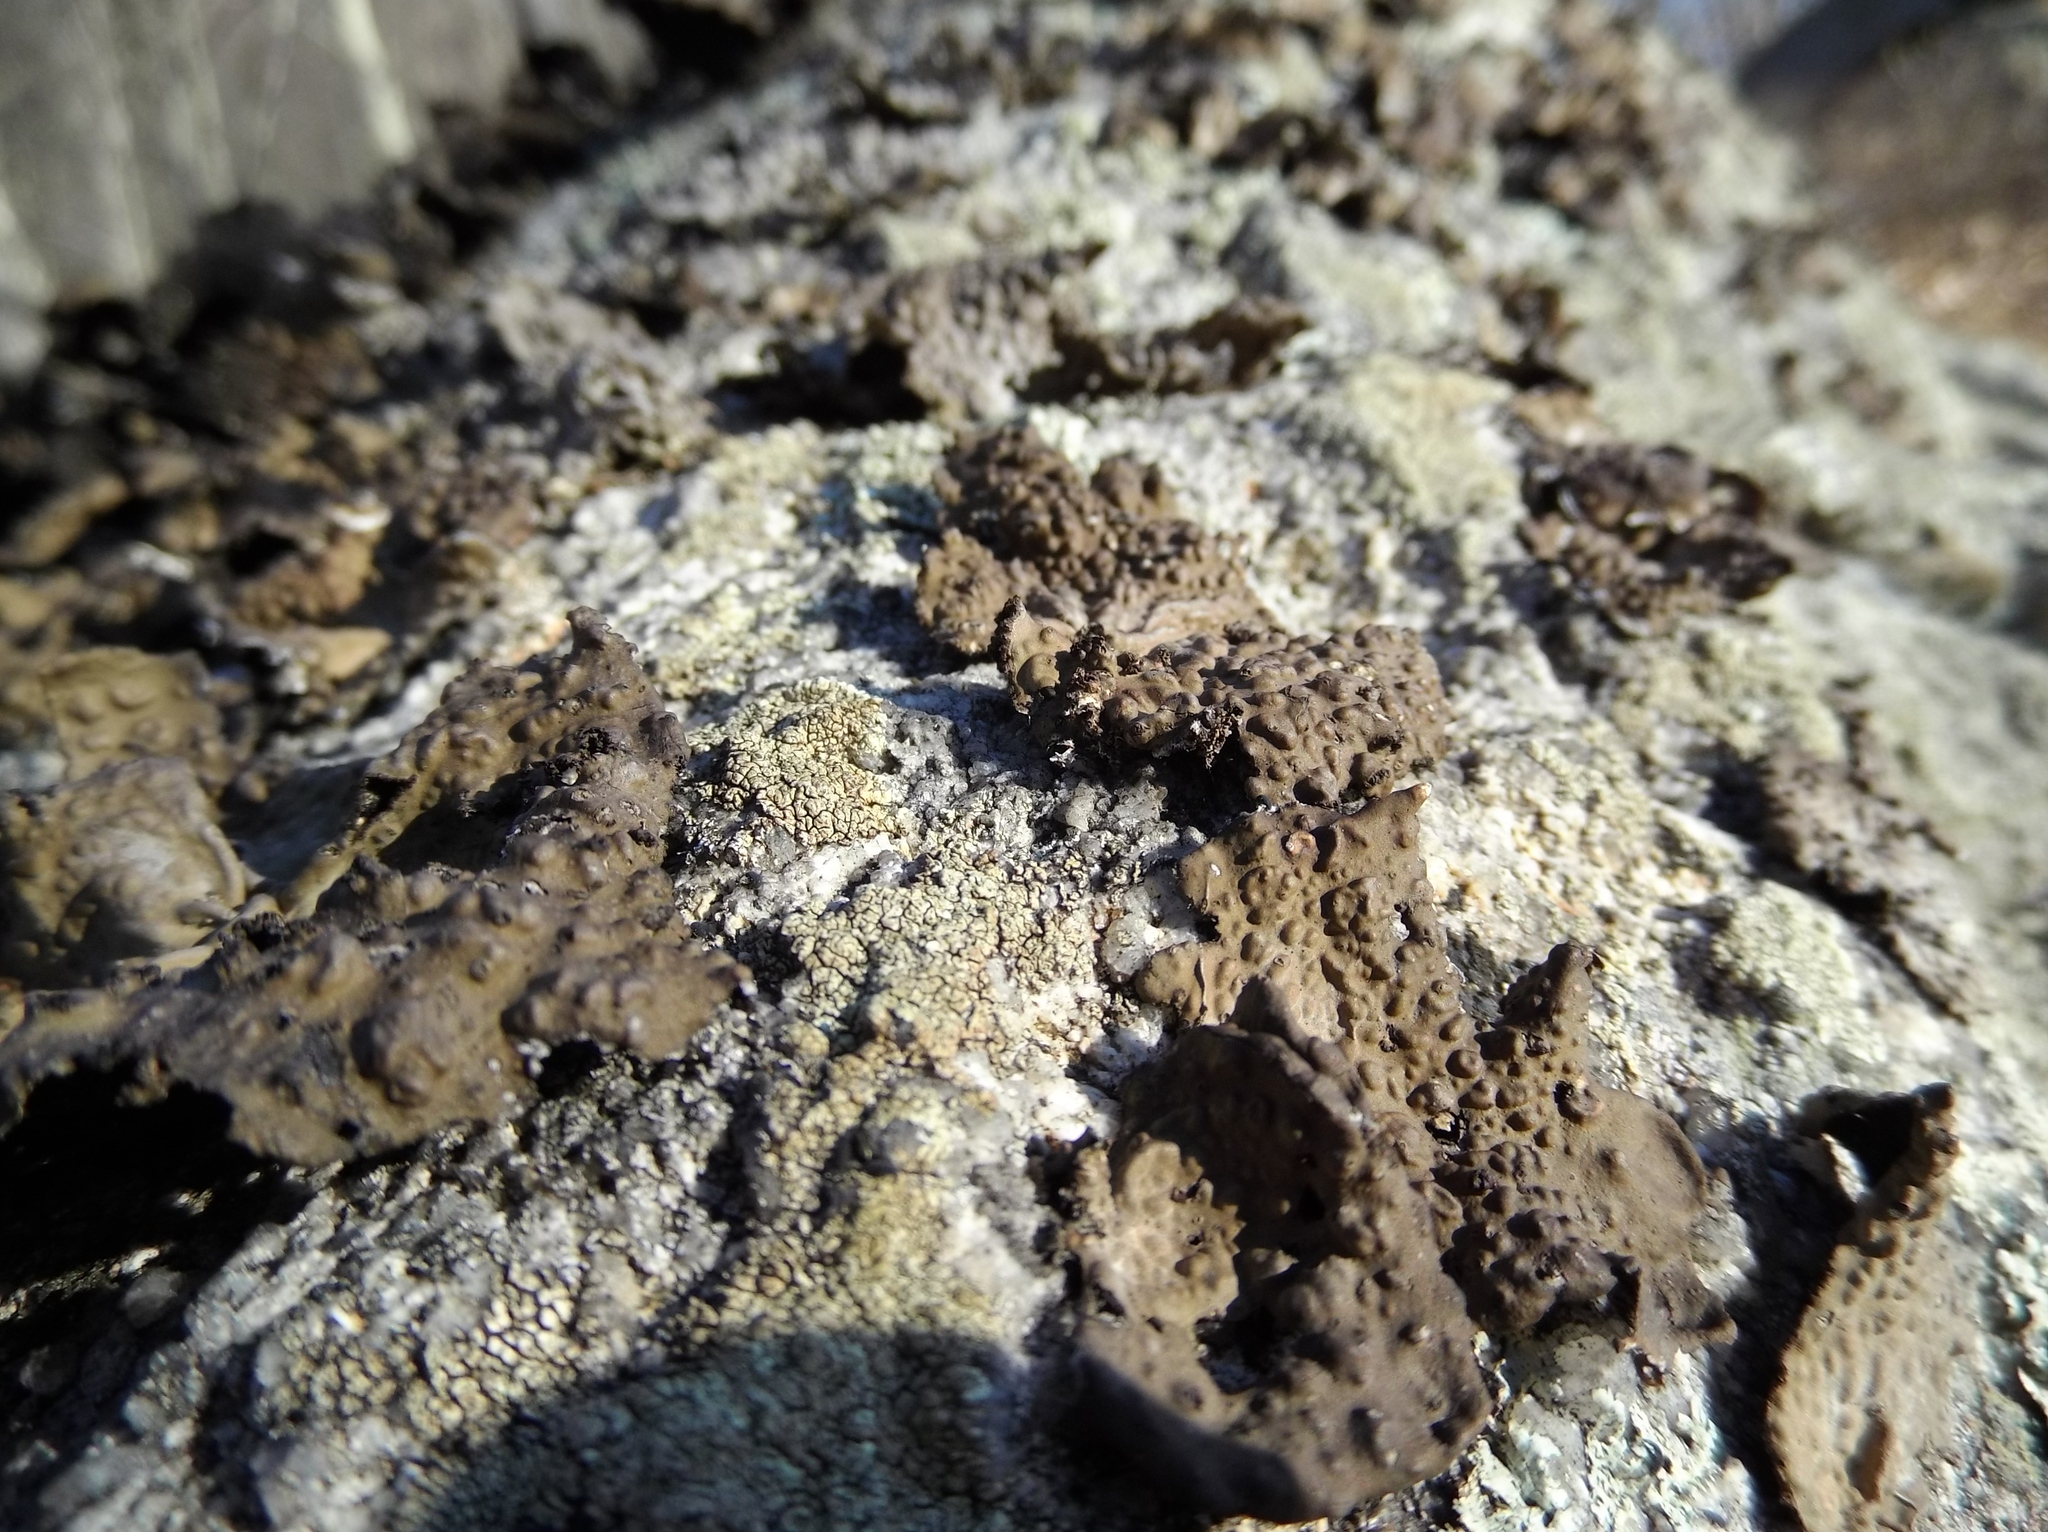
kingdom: Fungi
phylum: Ascomycota
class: Lecanoromycetes
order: Umbilicariales
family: Umbilicariaceae
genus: Lasallia
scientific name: Lasallia papulosa
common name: Common toadskin lichen
